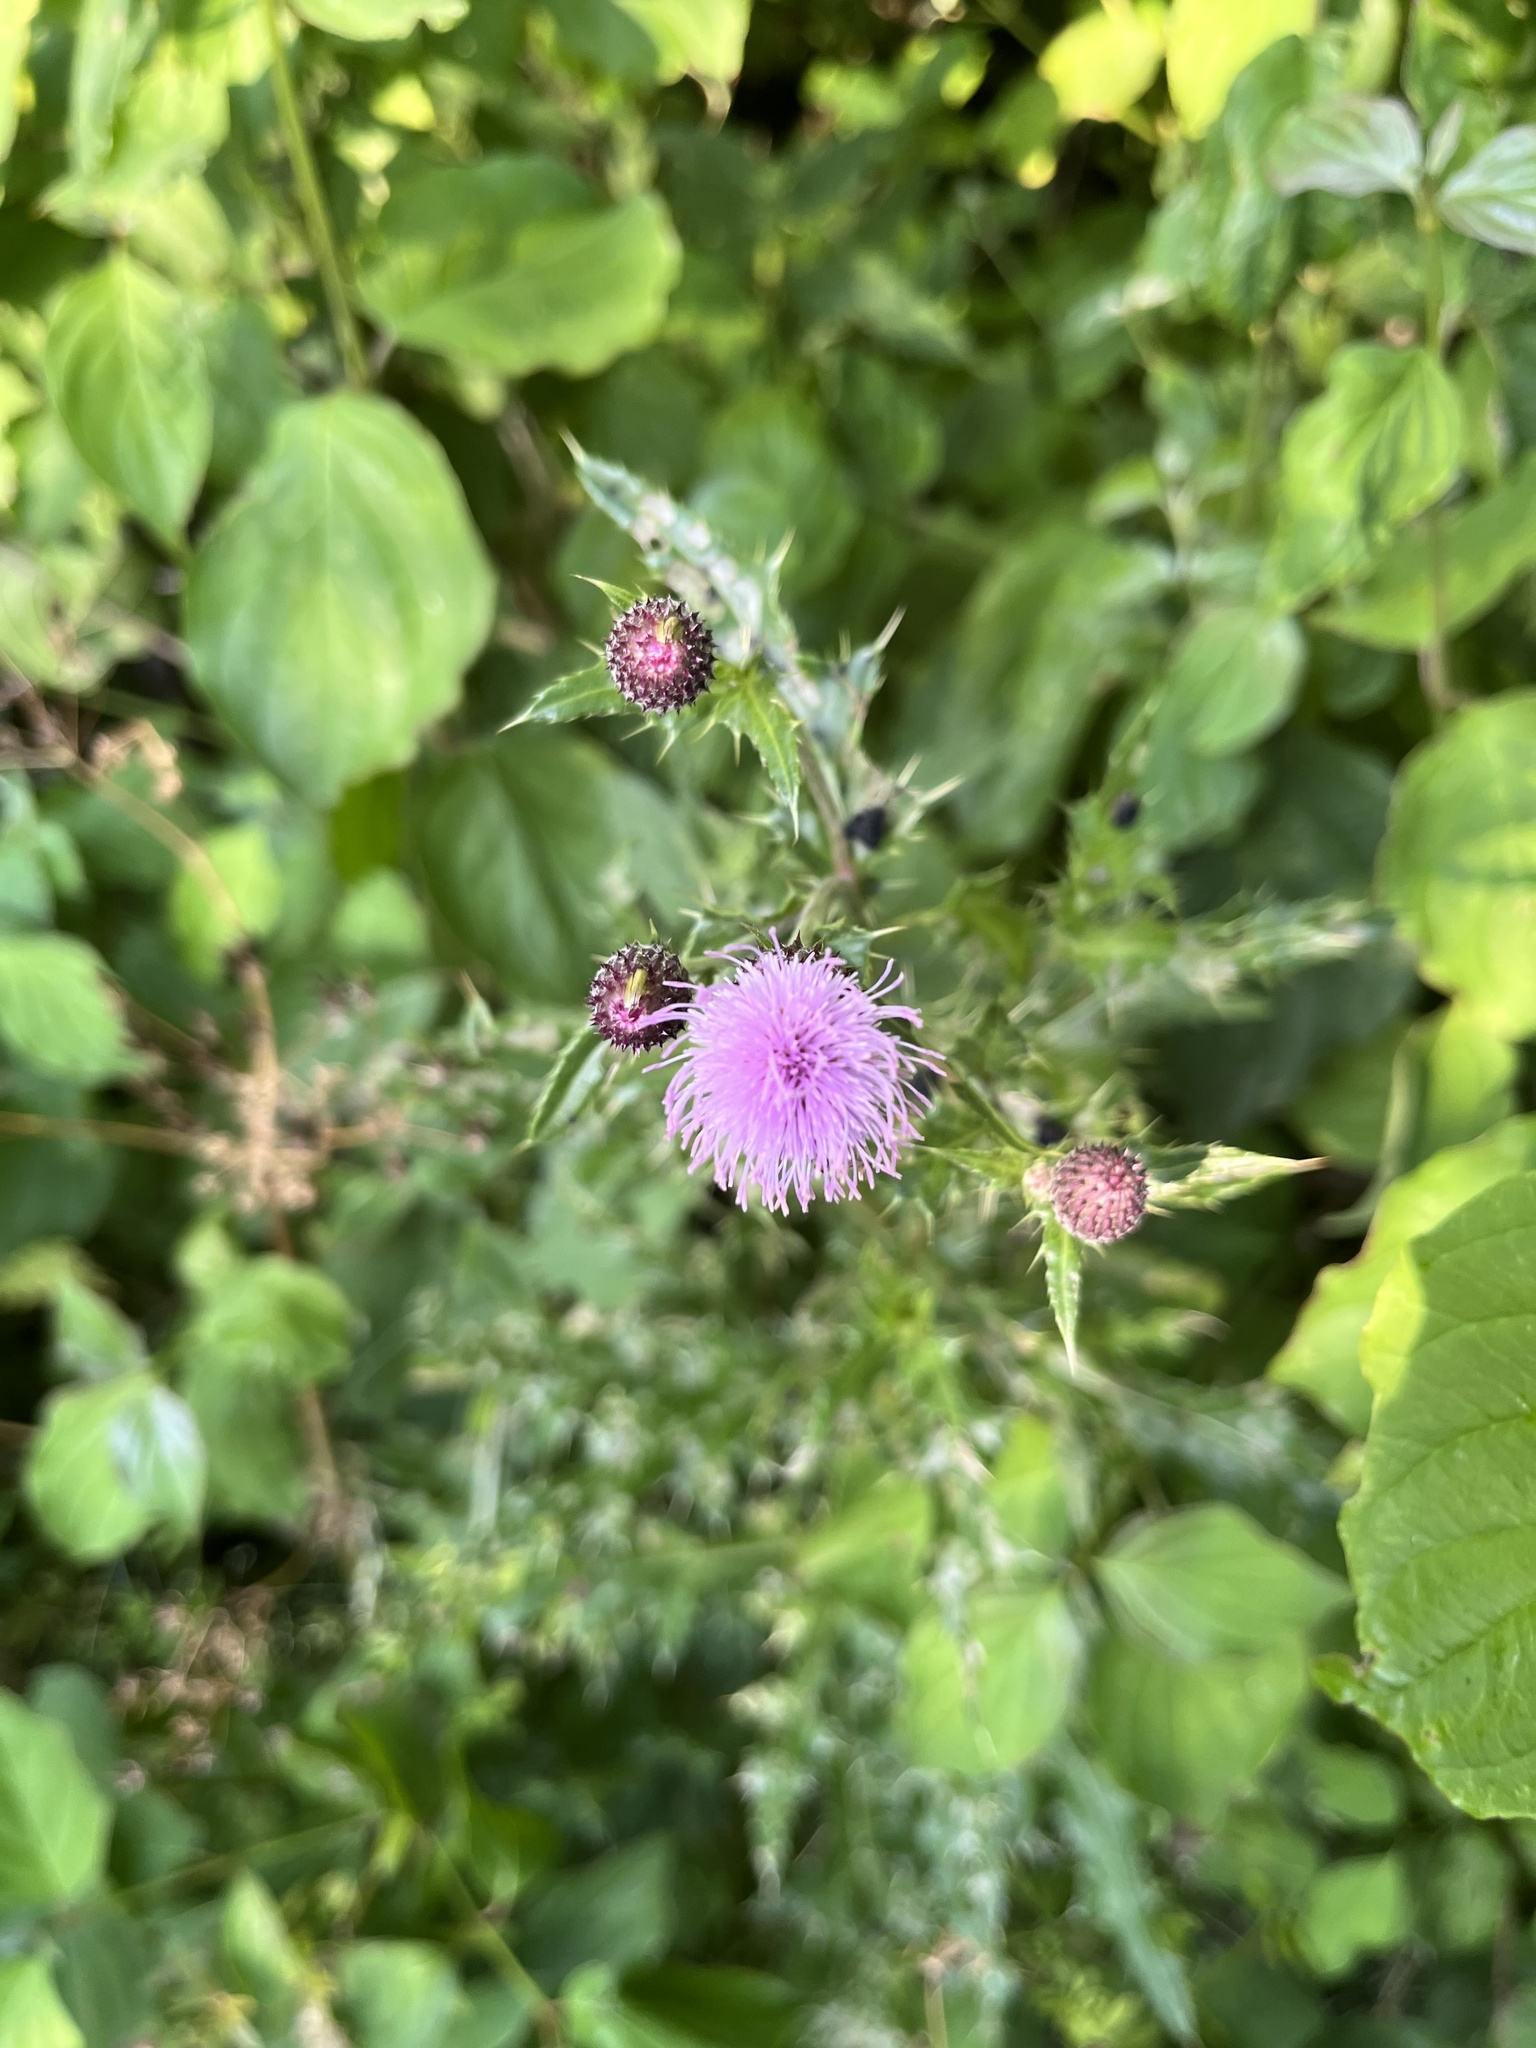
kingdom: Plantae
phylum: Tracheophyta
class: Magnoliopsida
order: Asterales
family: Asteraceae
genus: Cirsium
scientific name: Cirsium arvense
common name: Creeping thistle
